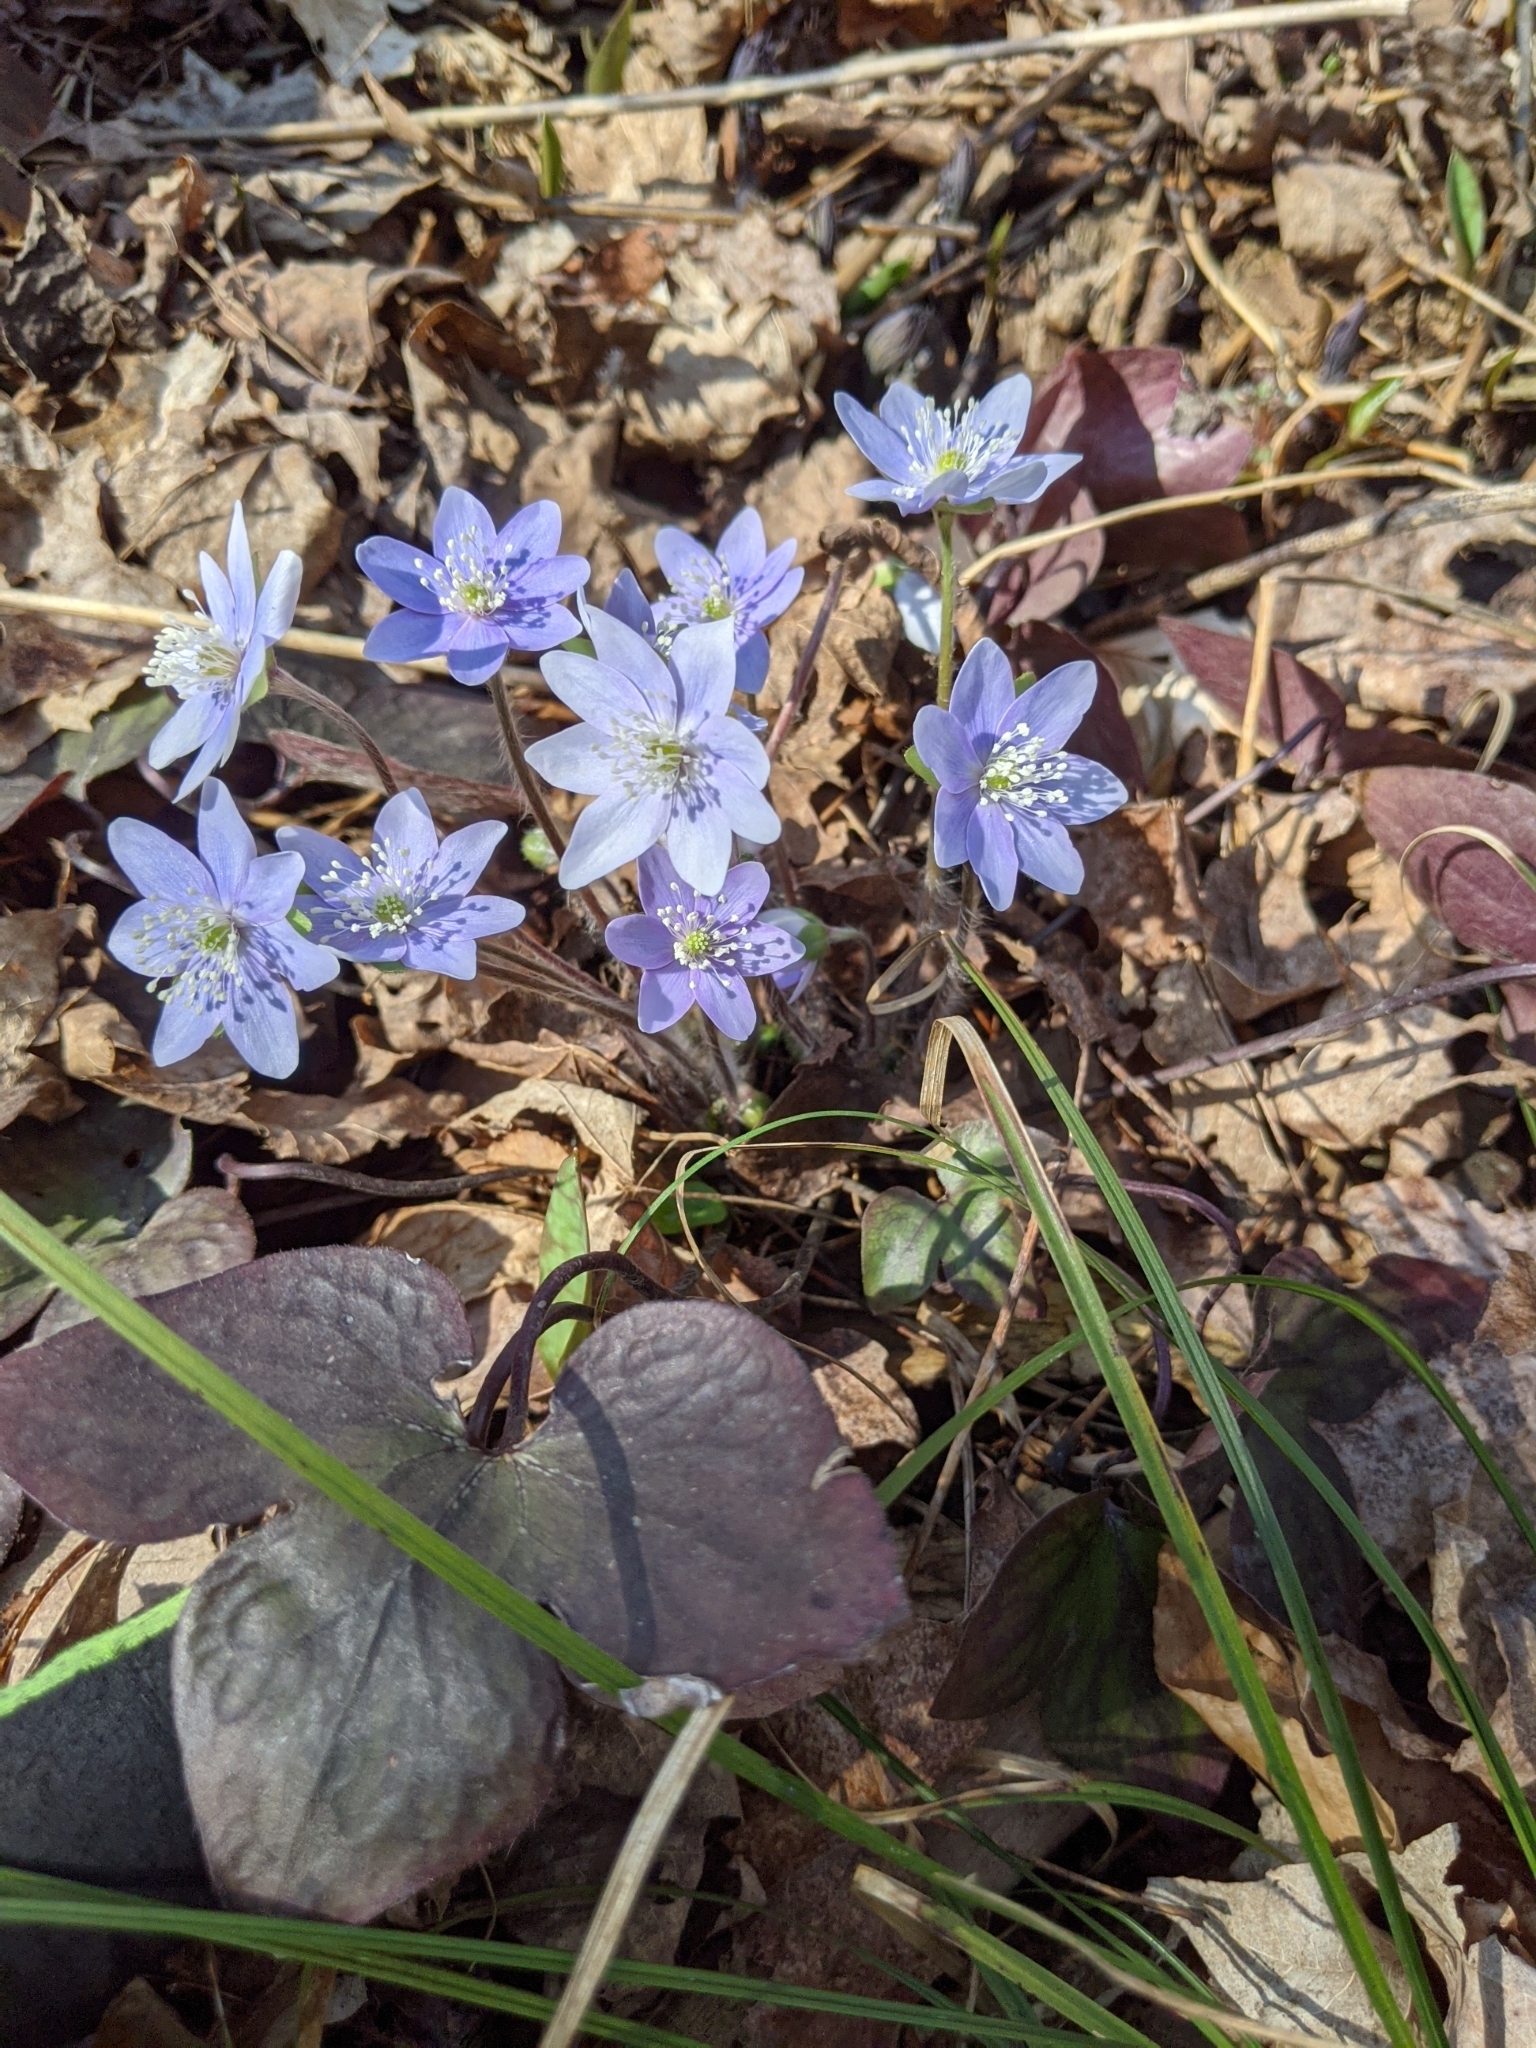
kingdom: Plantae
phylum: Tracheophyta
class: Magnoliopsida
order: Ranunculales
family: Ranunculaceae
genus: Hepatica
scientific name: Hepatica acutiloba
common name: Sharp-lobed hepatica
